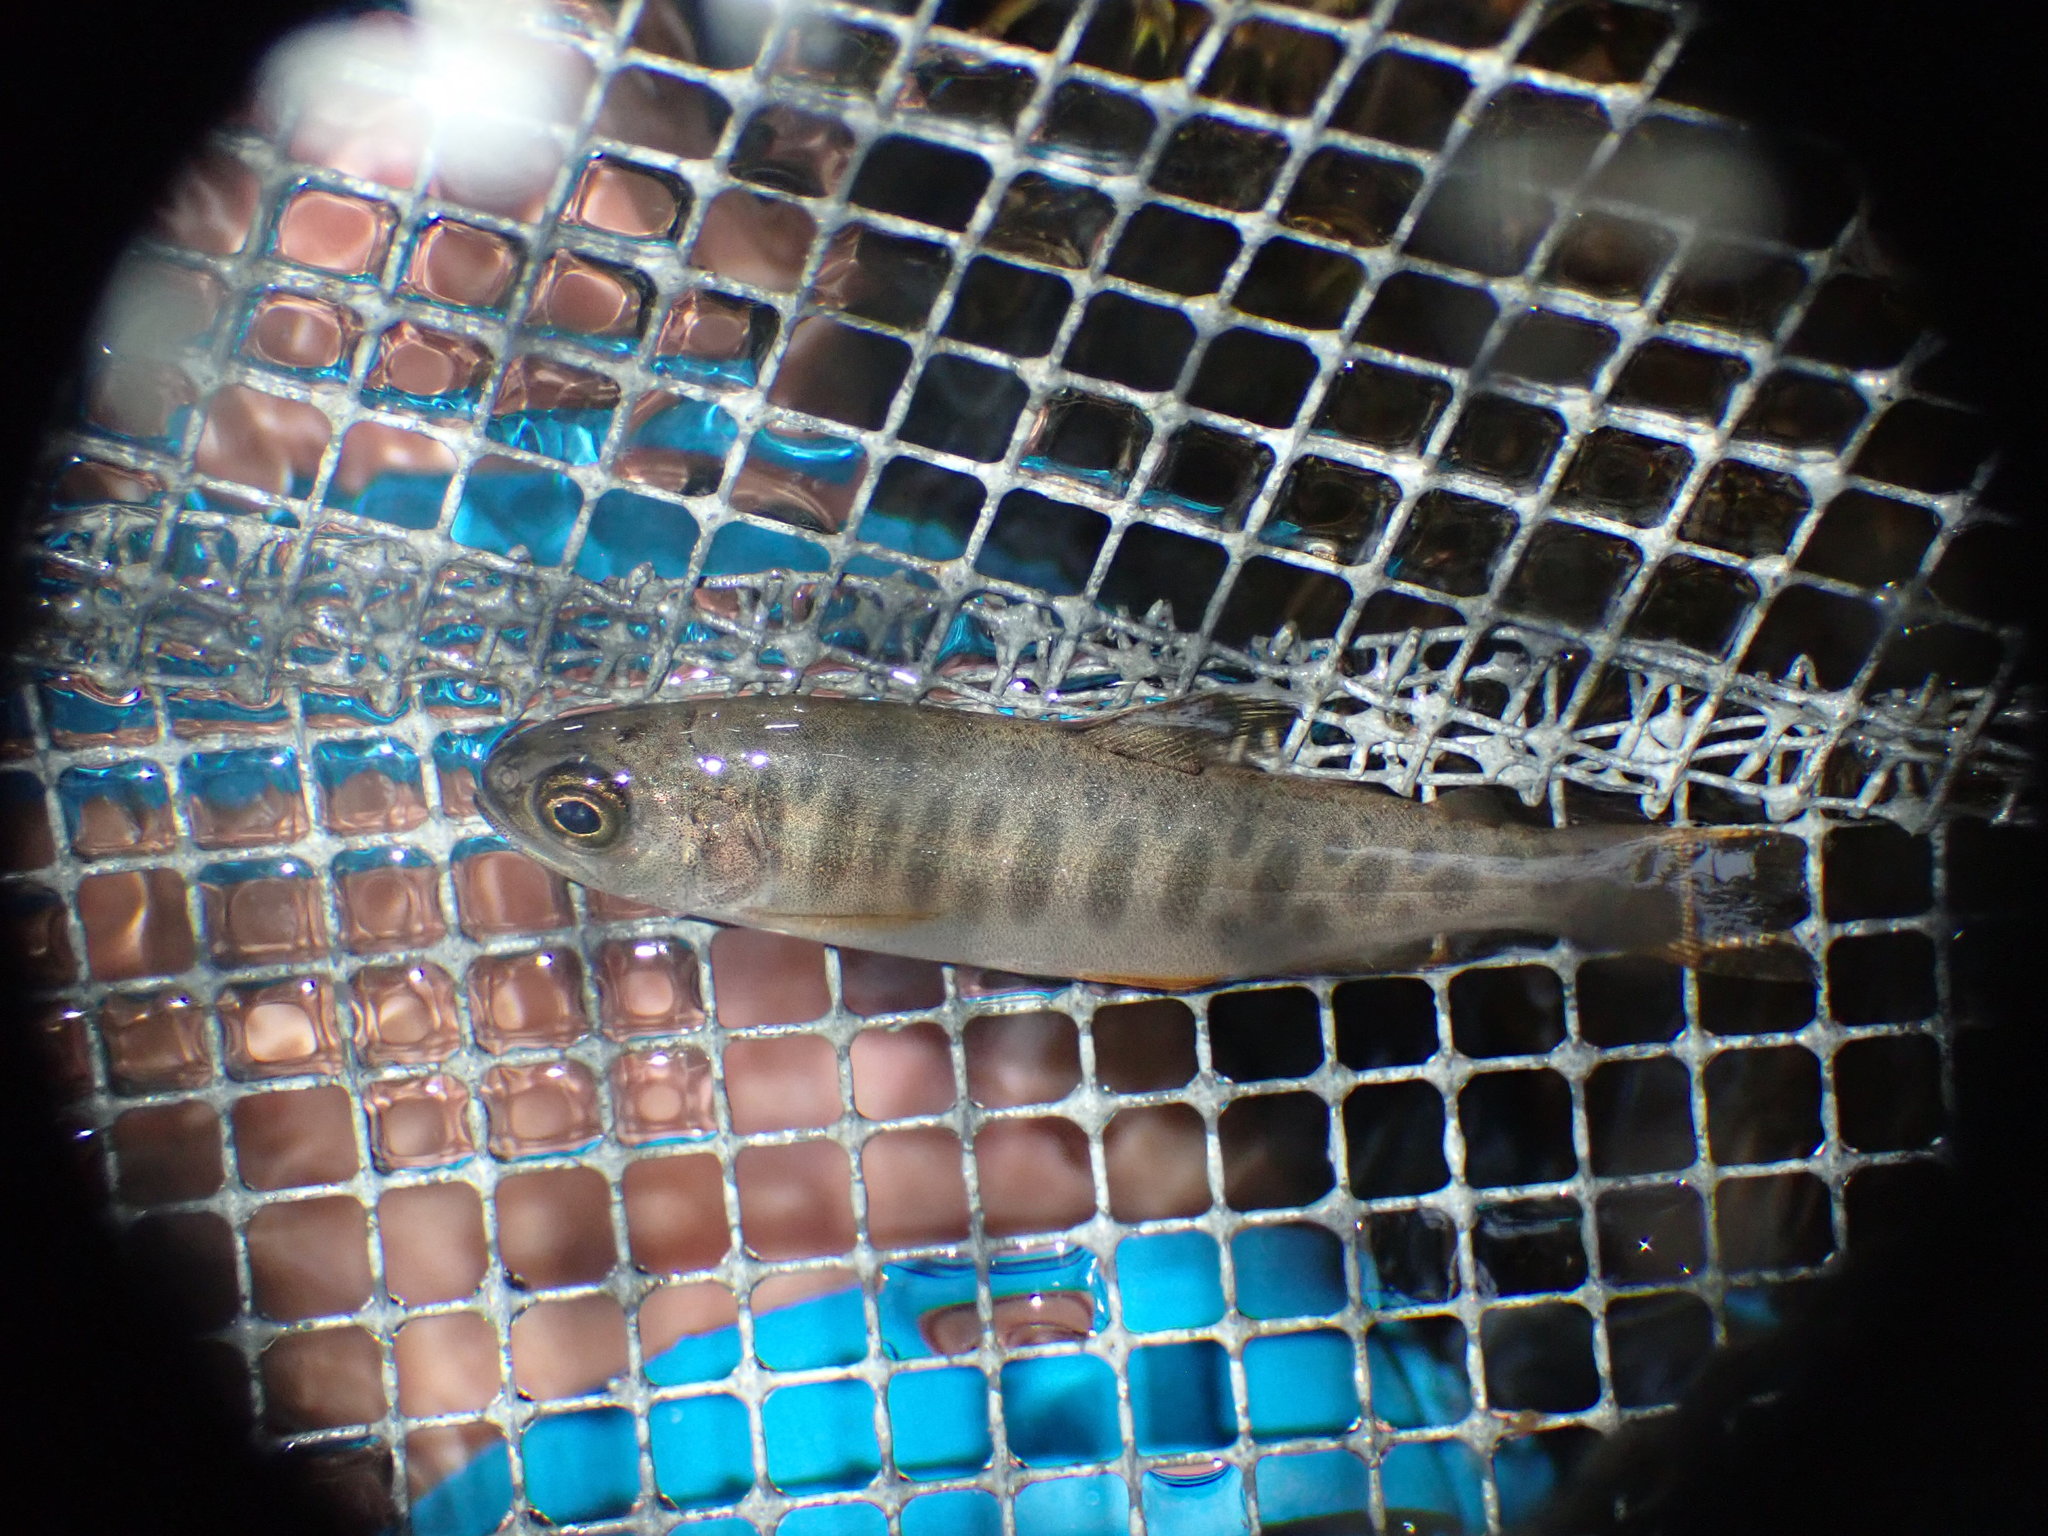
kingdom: Animalia
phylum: Chordata
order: Salmoniformes
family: Salmonidae
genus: Oncorhynchus
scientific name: Oncorhynchus kisutch
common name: Coho salmon
